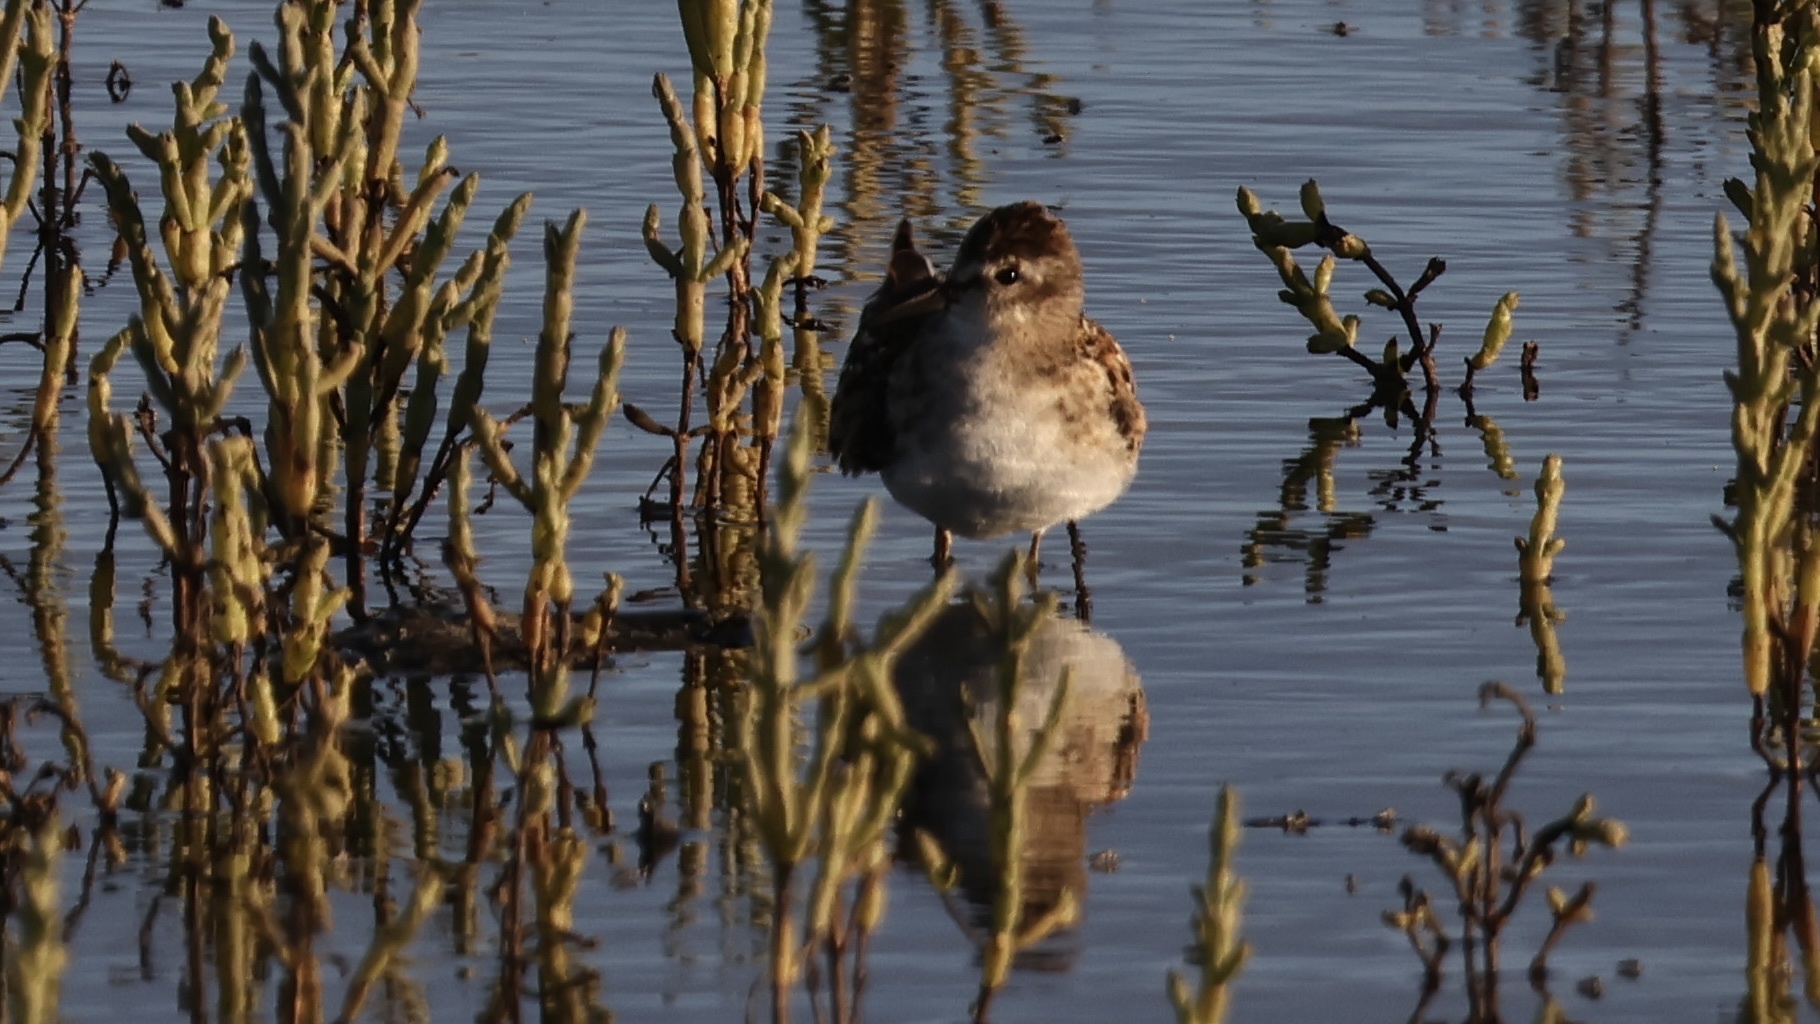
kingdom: Animalia
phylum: Chordata
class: Aves
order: Charadriiformes
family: Scolopacidae
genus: Calidris
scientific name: Calidris minutilla
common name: Least sandpiper
